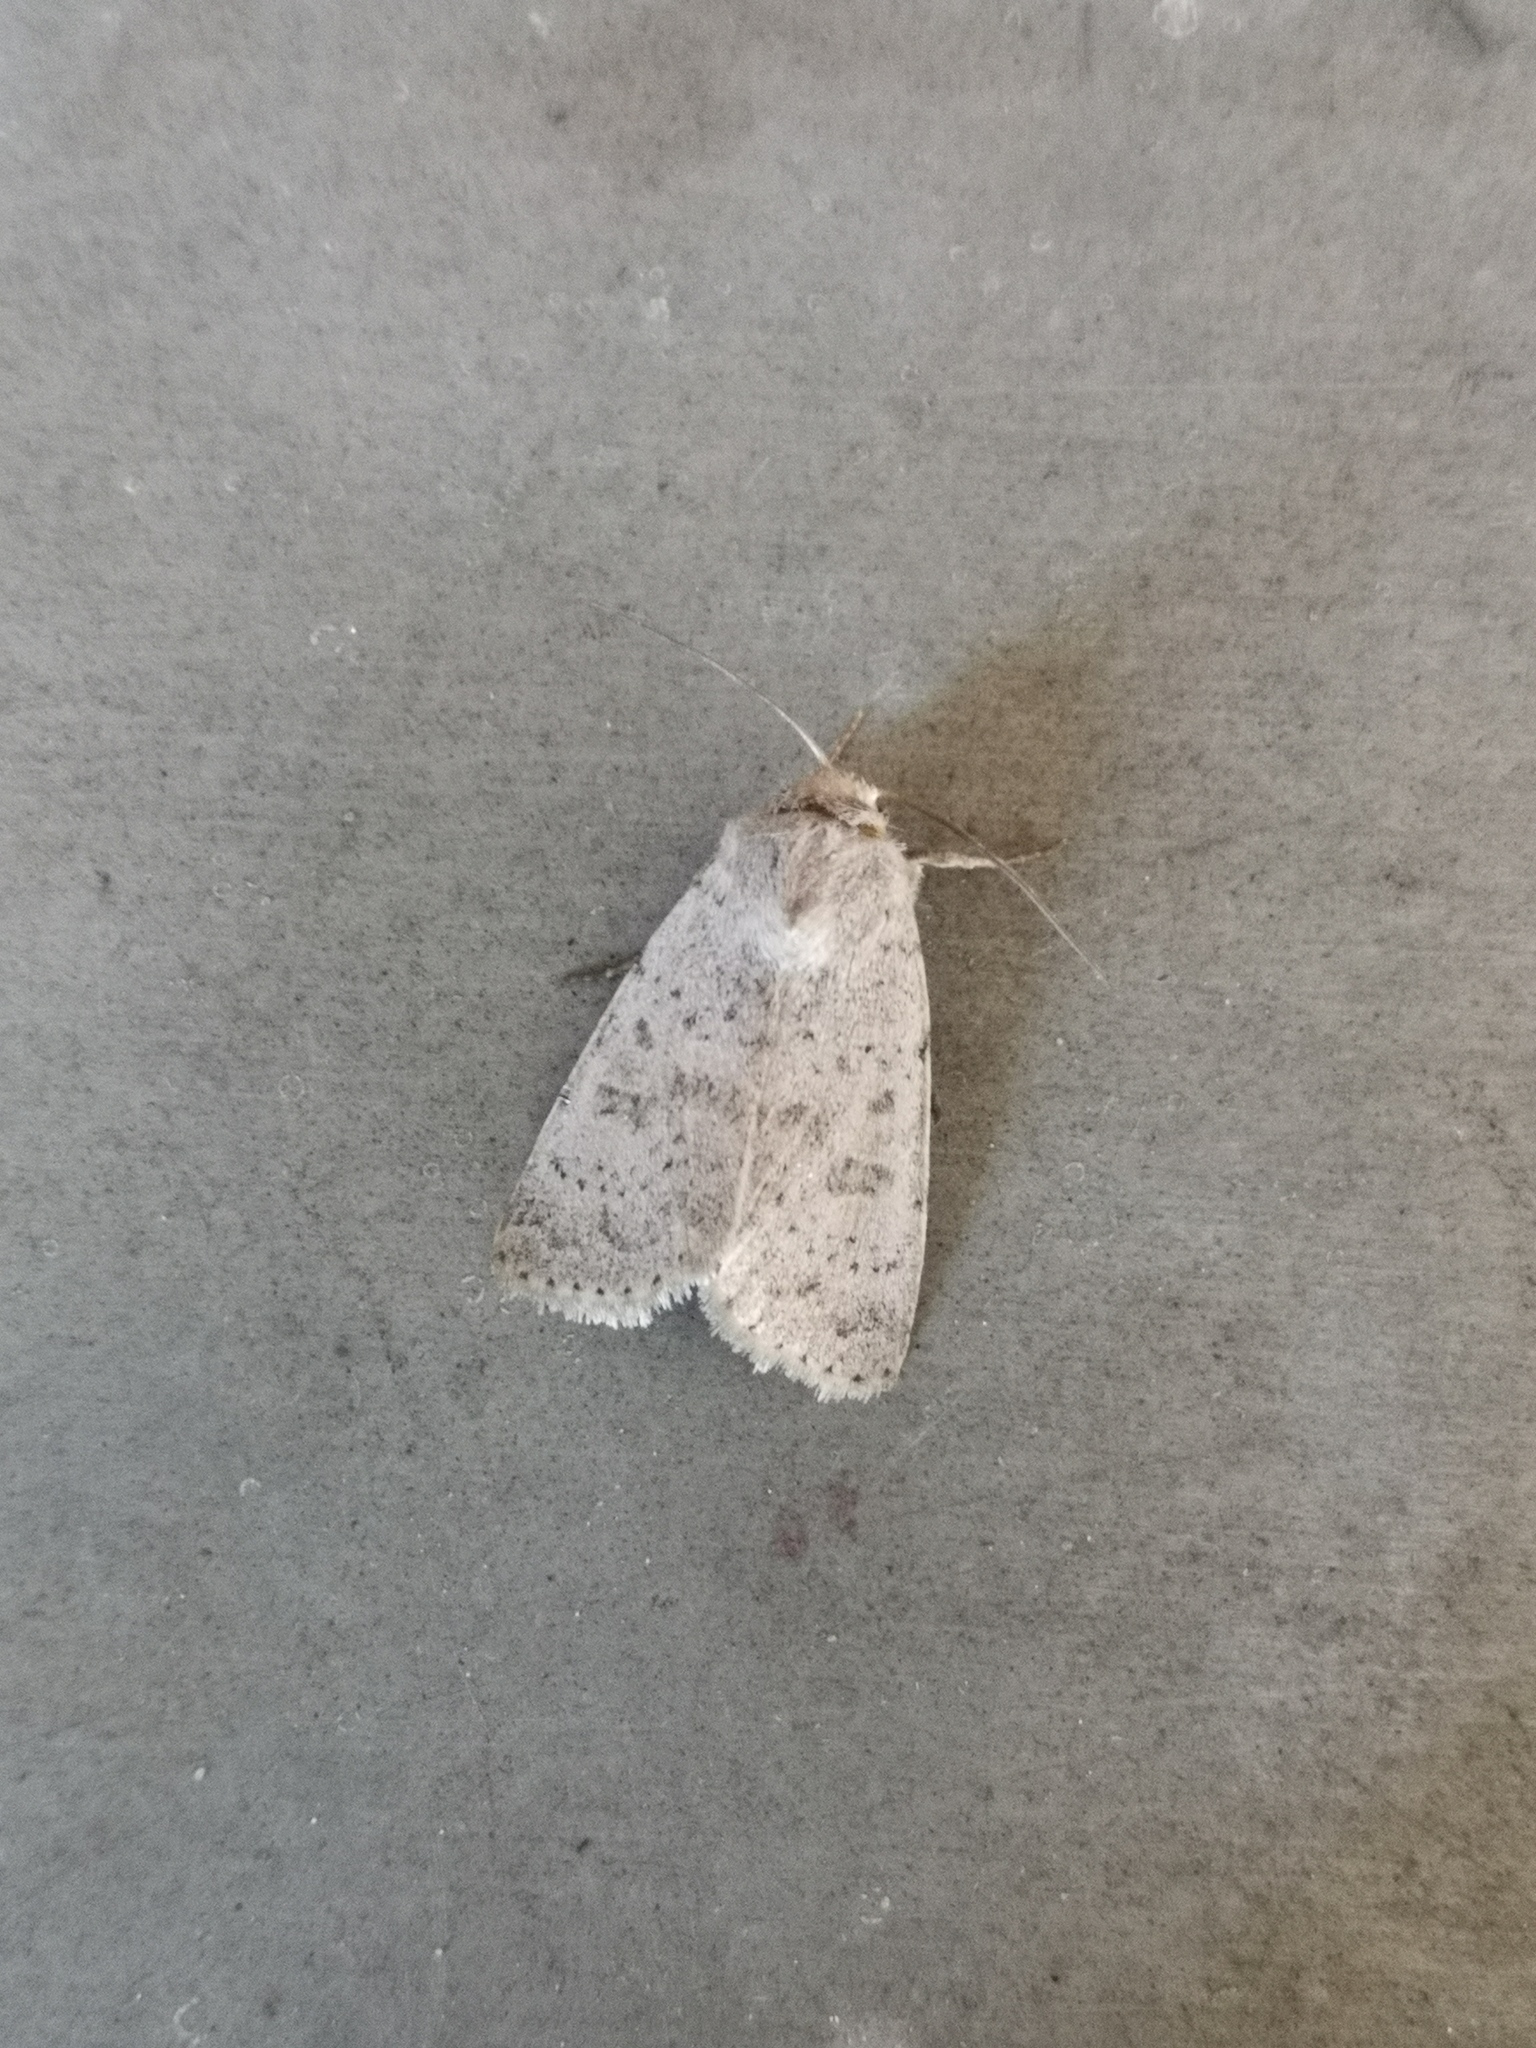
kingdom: Animalia
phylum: Arthropoda
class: Insecta
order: Lepidoptera
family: Noctuidae
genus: Hoplodrina
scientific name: Hoplodrina respersa
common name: Sprinkled rustic
